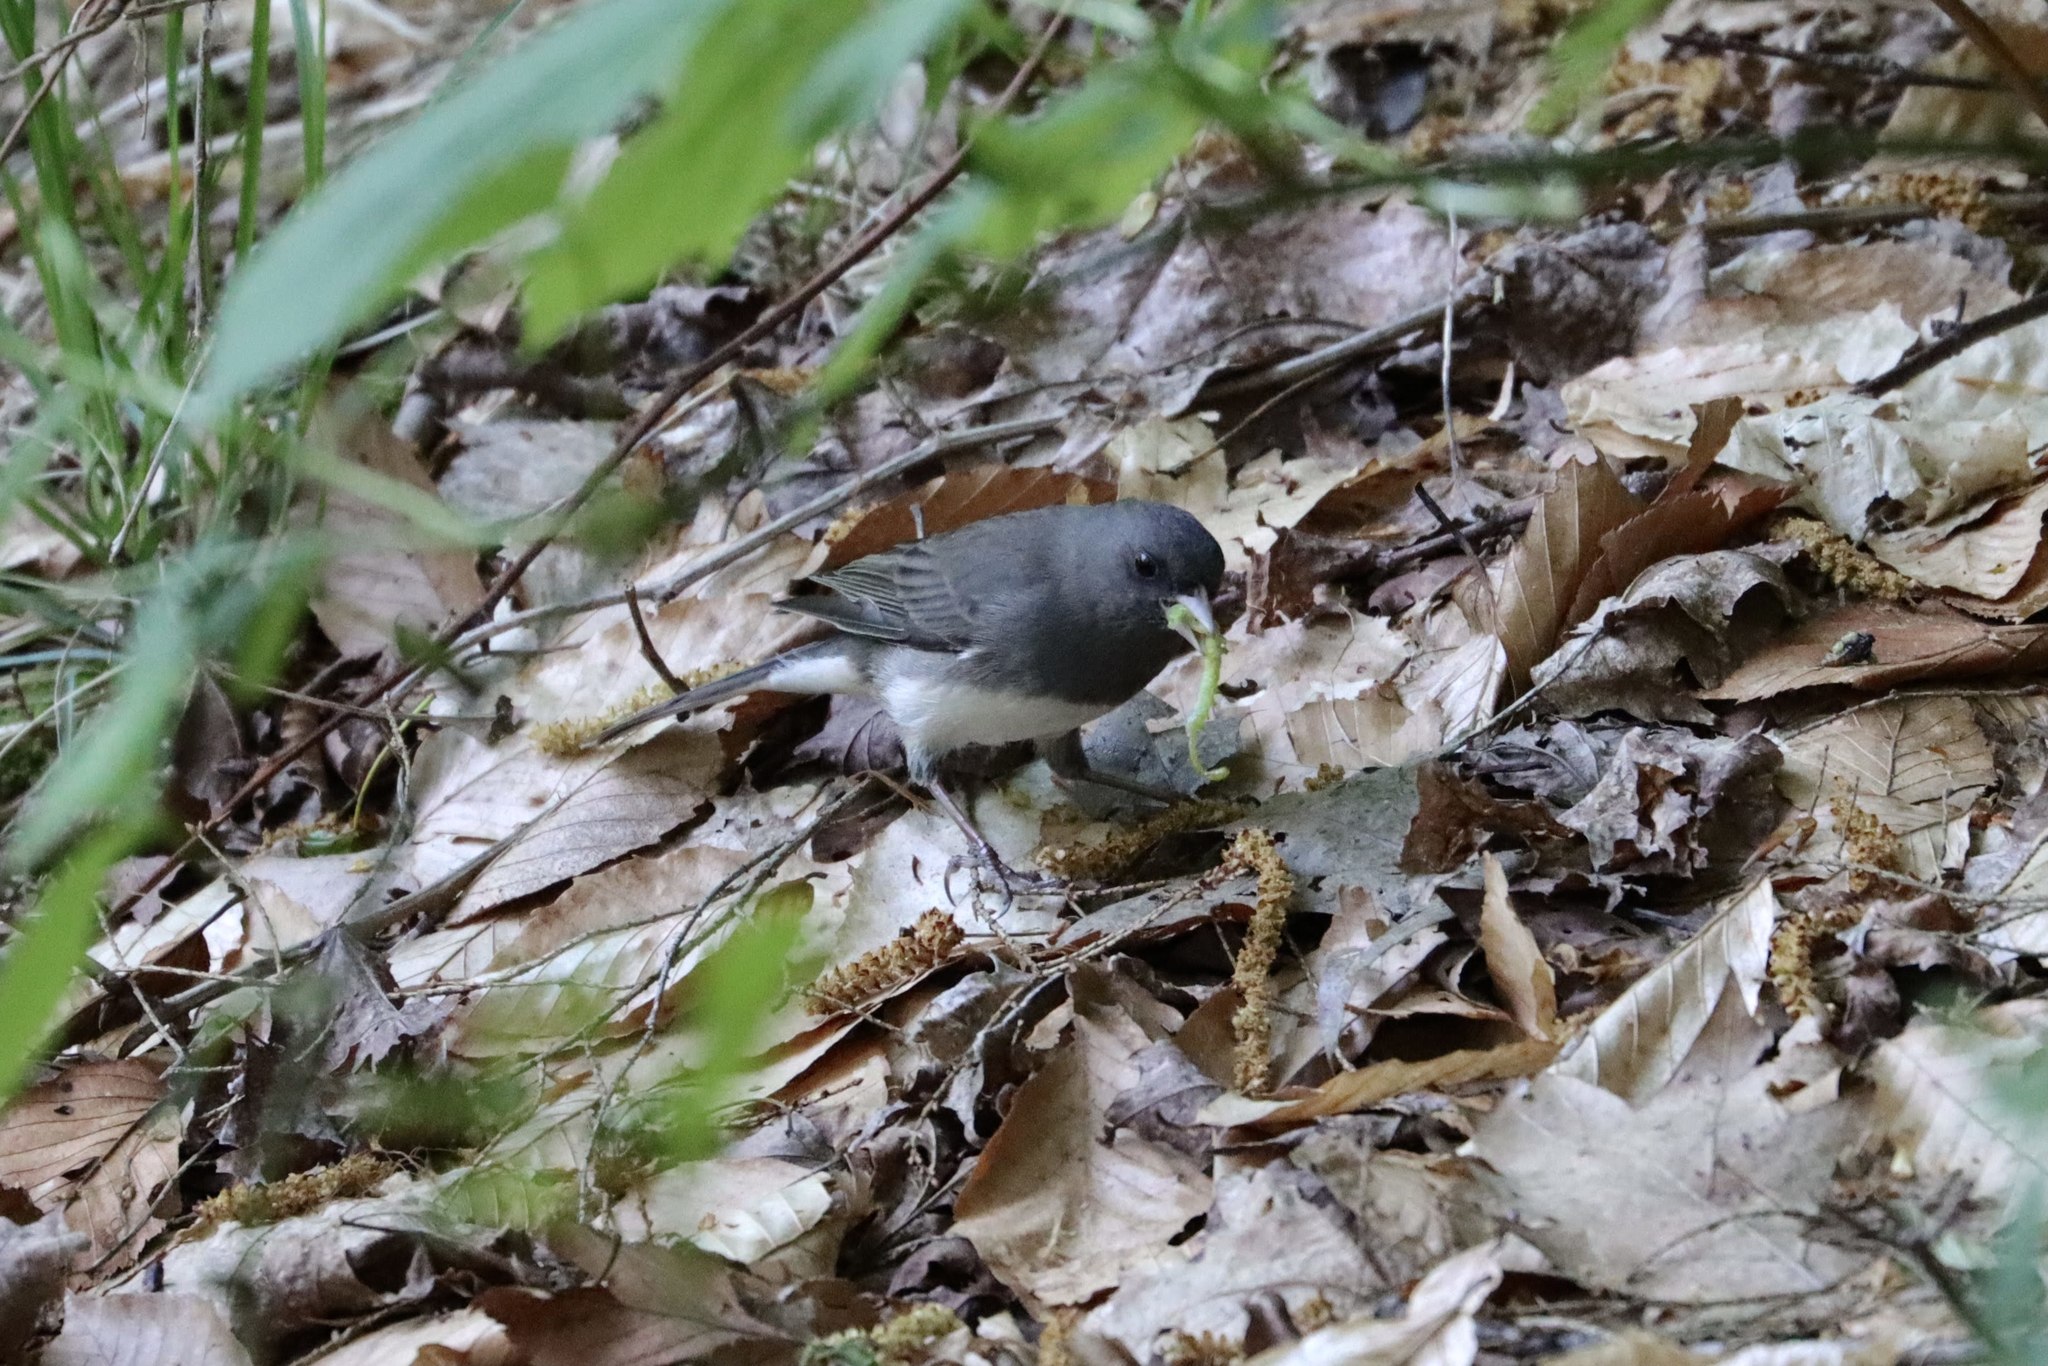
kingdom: Animalia
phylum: Chordata
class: Aves
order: Passeriformes
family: Passerellidae
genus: Junco
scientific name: Junco hyemalis
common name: Dark-eyed junco
